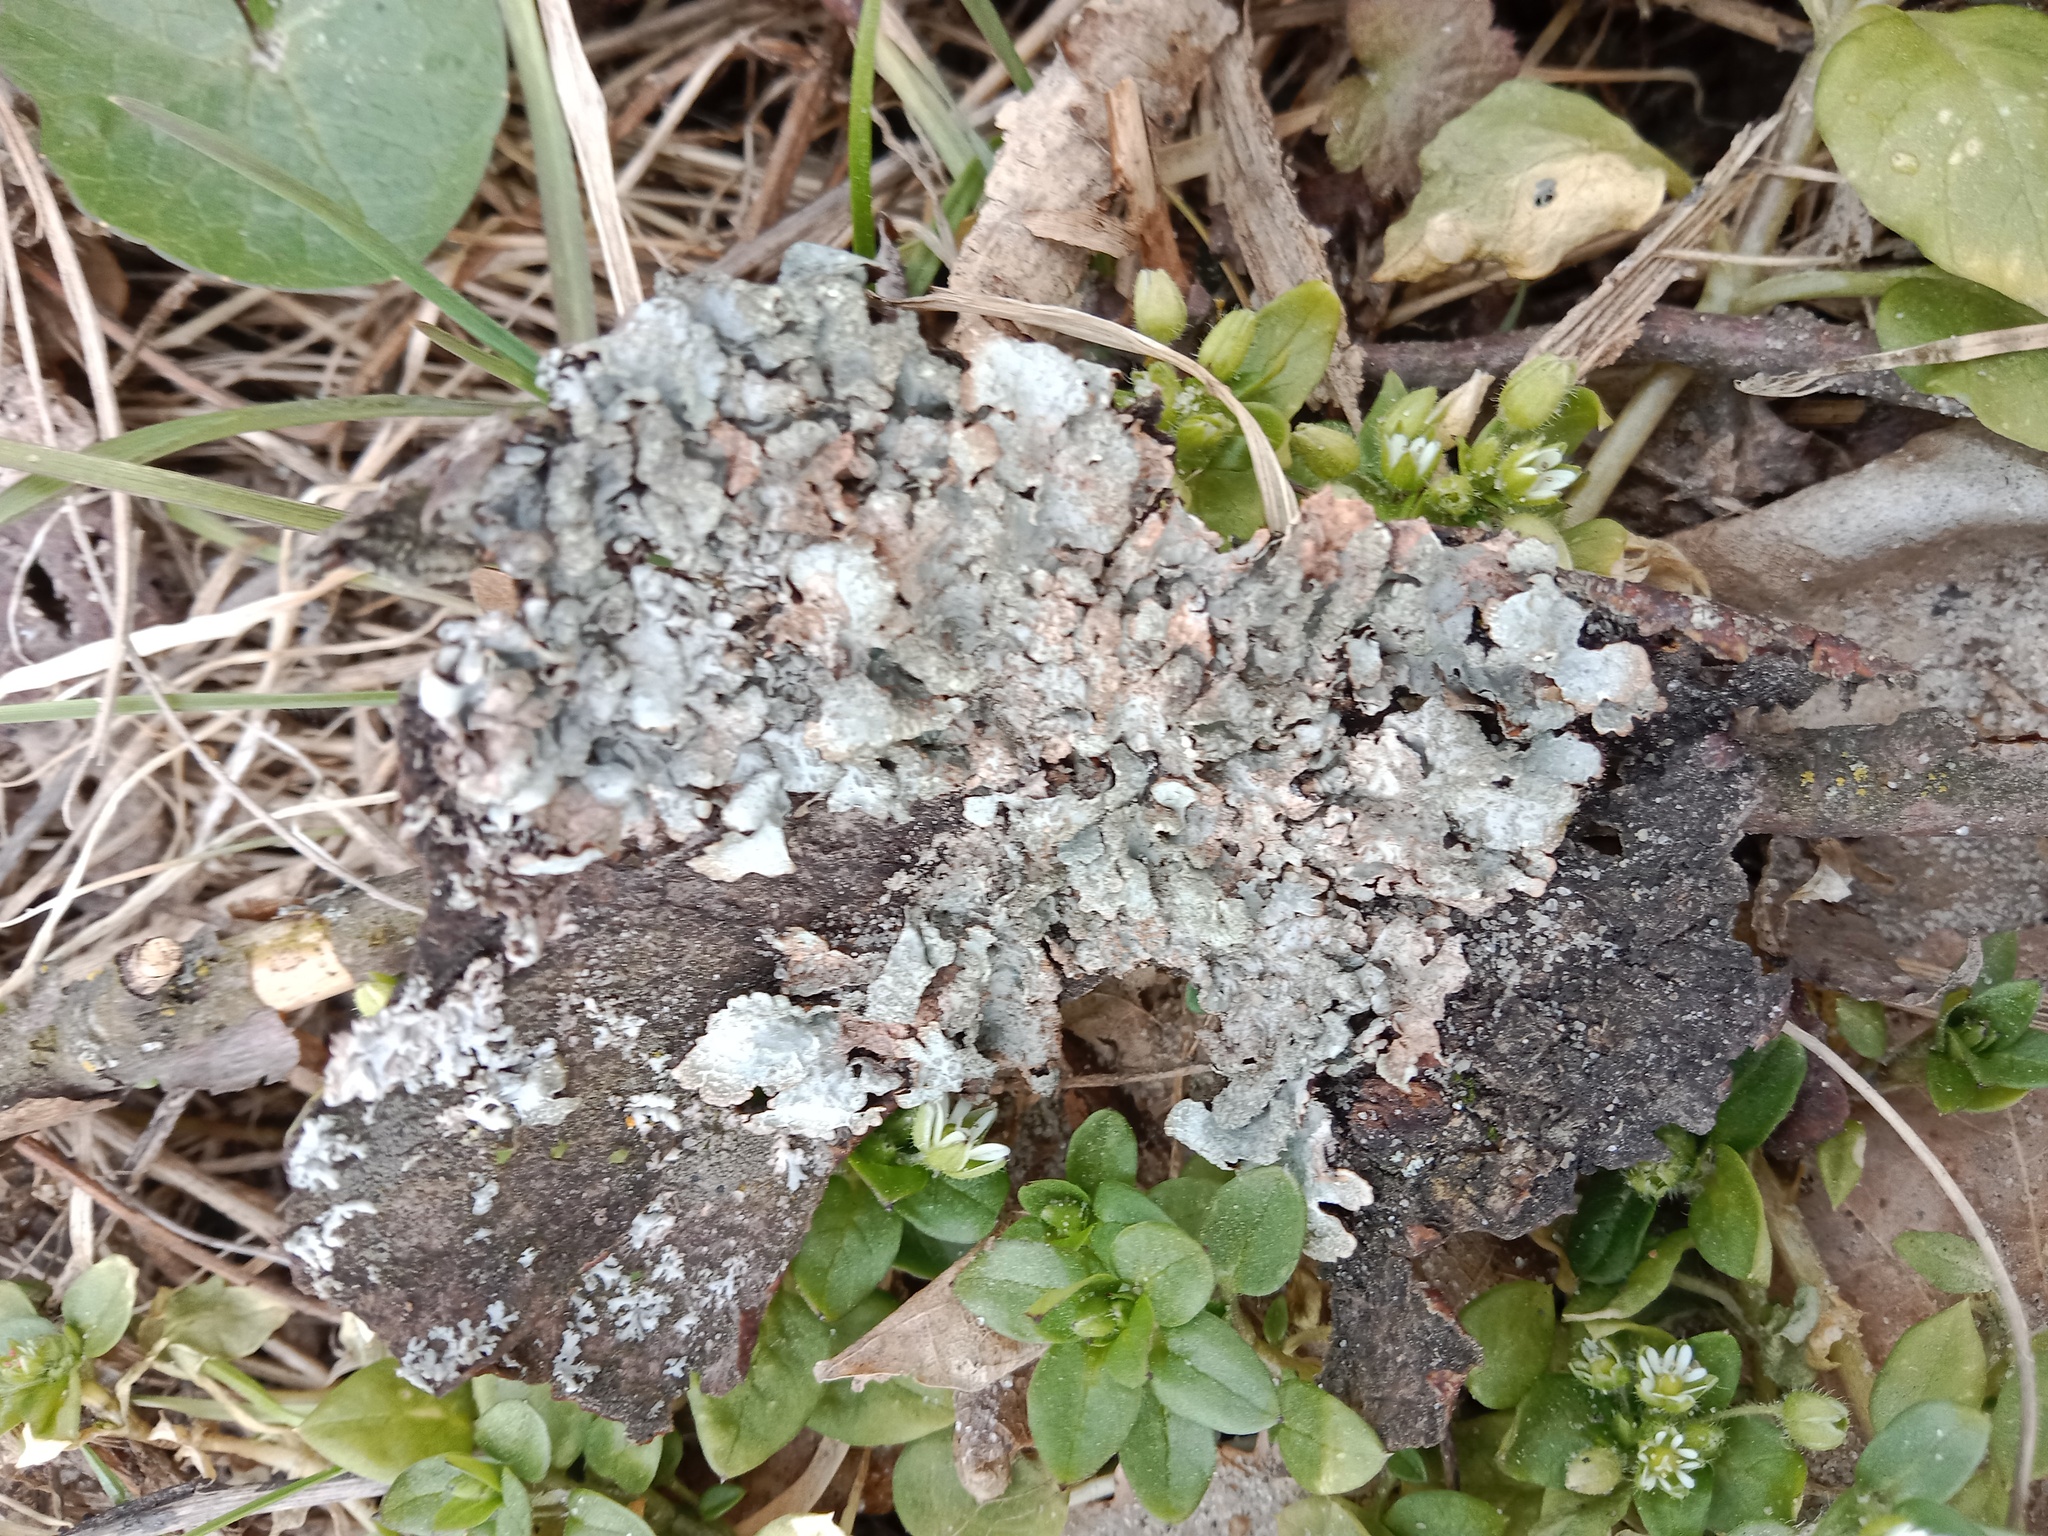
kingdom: Fungi
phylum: Ascomycota
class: Lecanoromycetes
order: Lecanorales
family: Parmeliaceae
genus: Parmelia
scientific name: Parmelia sulcata
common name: Netted shield lichen
